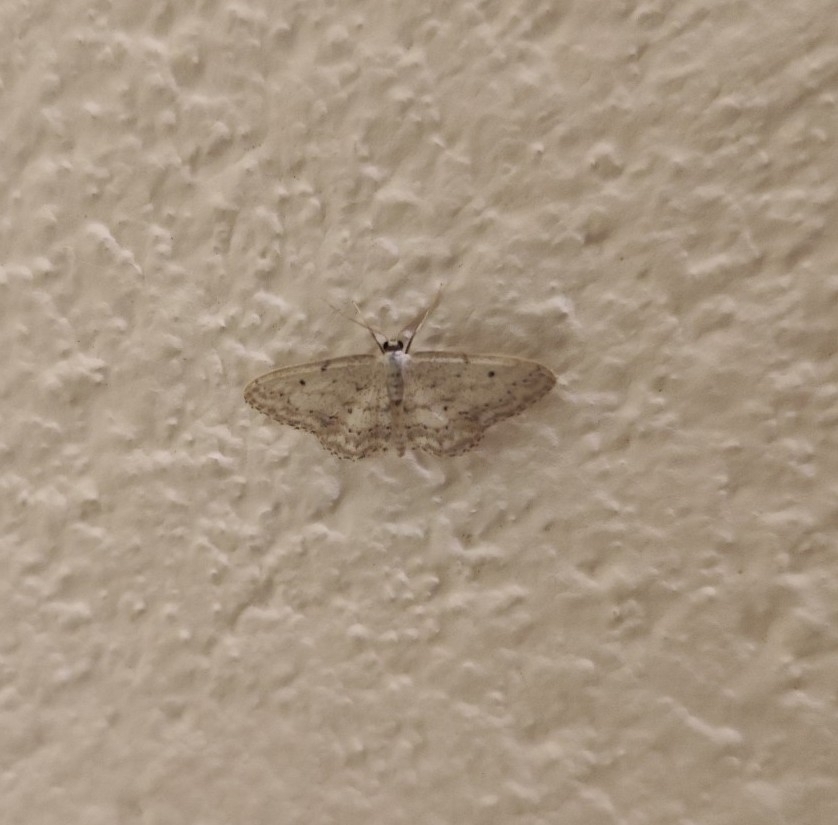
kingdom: Animalia
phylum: Arthropoda
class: Insecta
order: Lepidoptera
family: Geometridae
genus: Idaea
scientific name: Idaea seriata
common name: Small dusty wave
